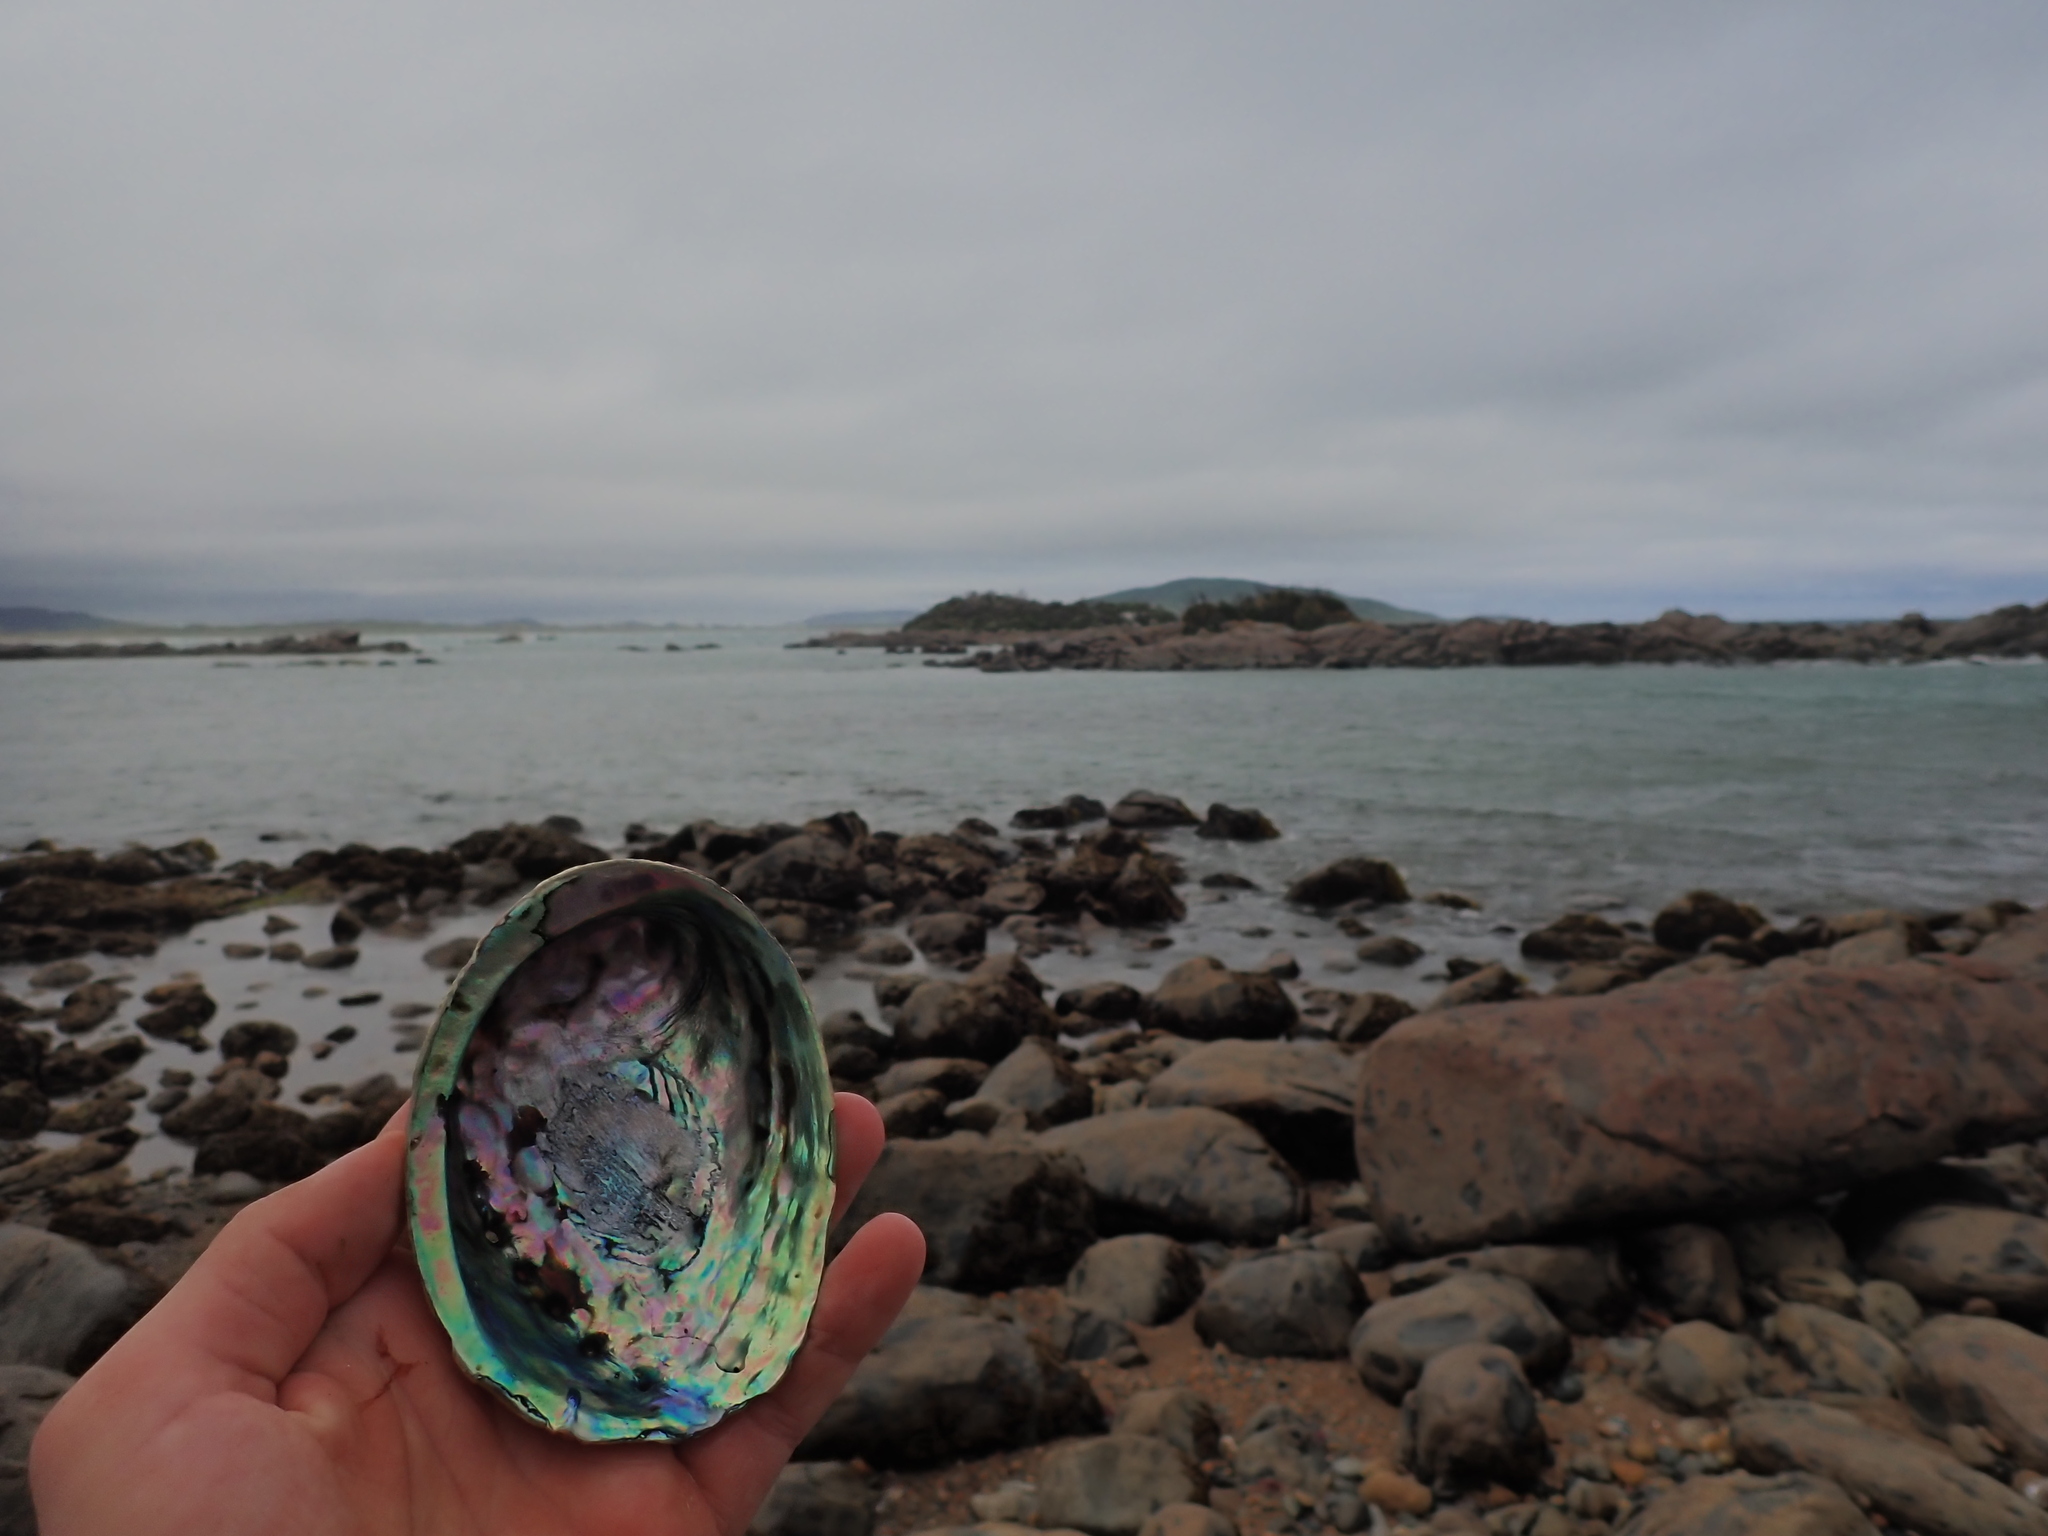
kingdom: Animalia
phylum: Mollusca
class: Gastropoda
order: Lepetellida
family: Haliotidae
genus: Haliotis
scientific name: Haliotis iris
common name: Abalone
